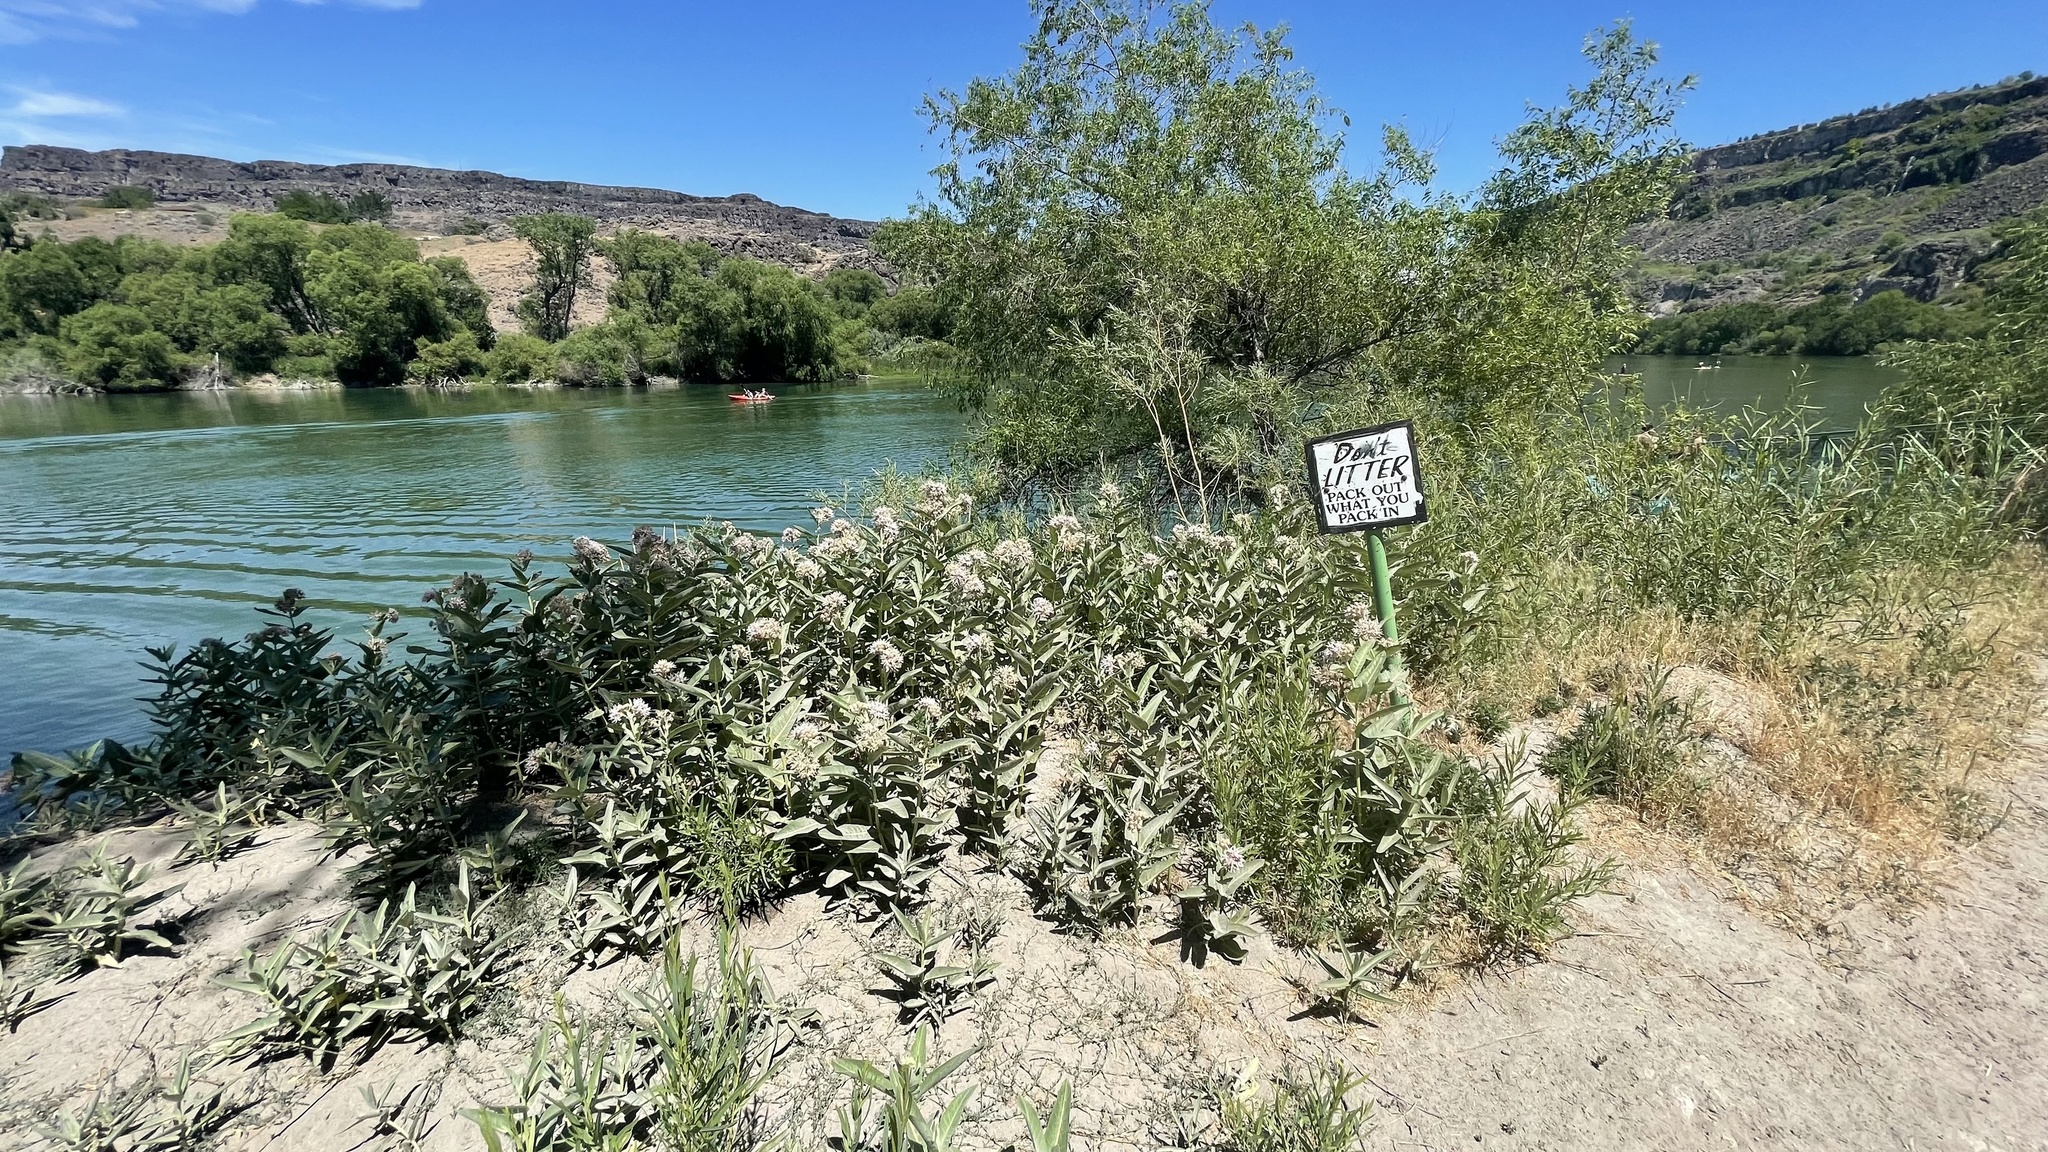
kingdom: Plantae
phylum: Tracheophyta
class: Magnoliopsida
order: Gentianales
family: Apocynaceae
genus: Asclepias
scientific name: Asclepias speciosa
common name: Showy milkweed
